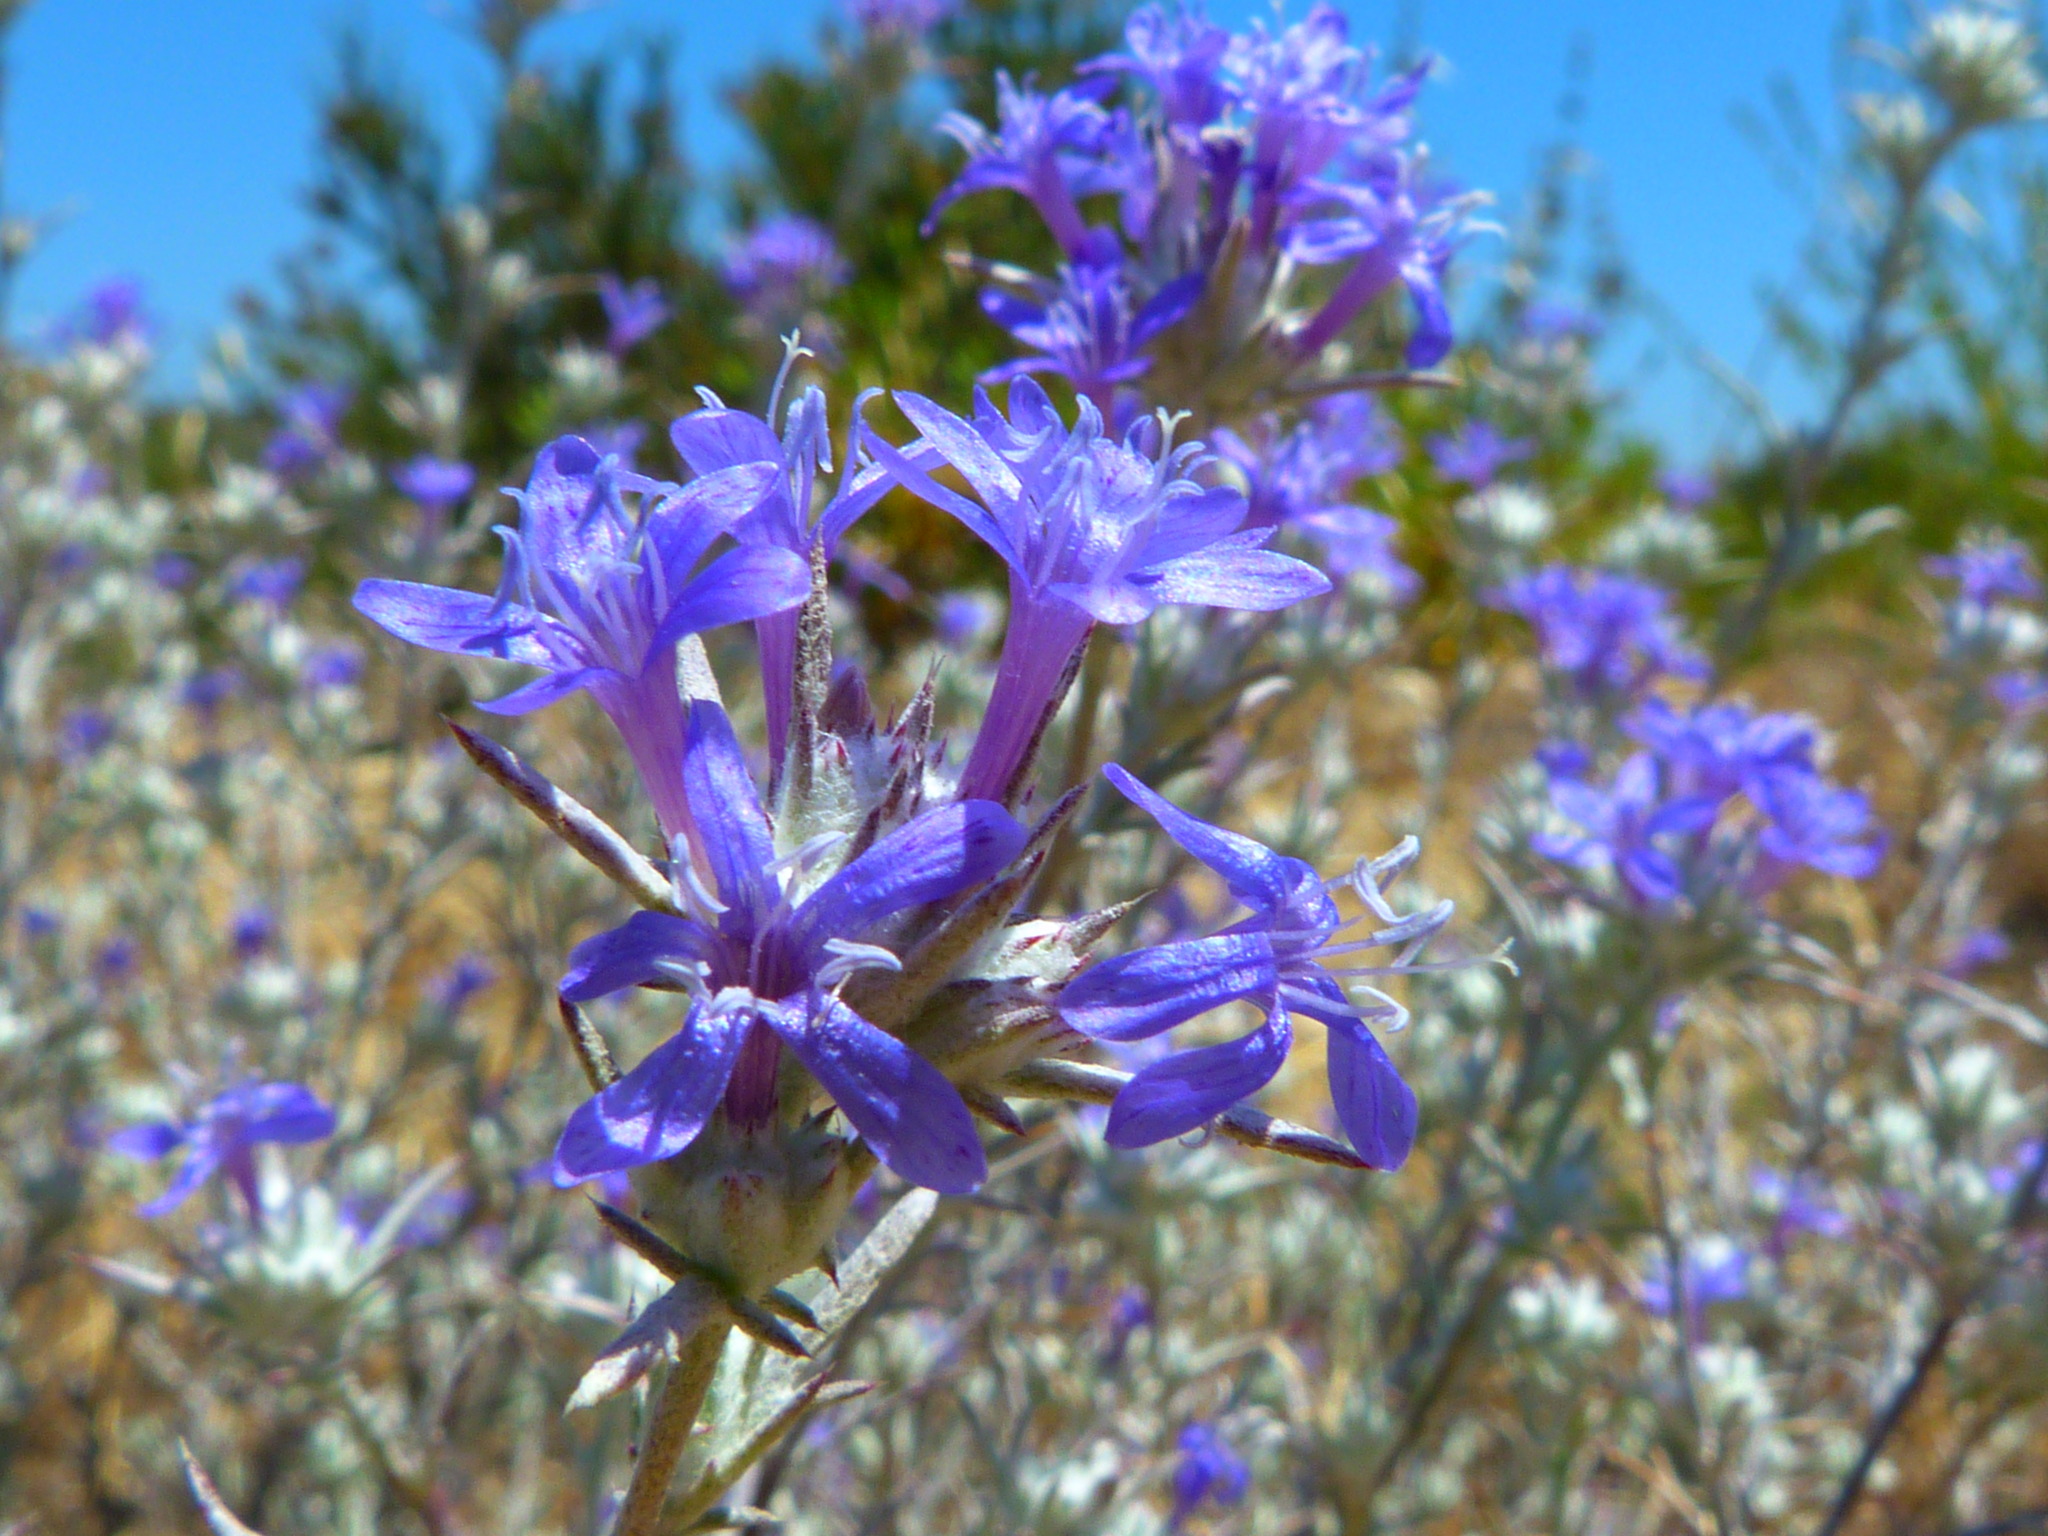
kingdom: Plantae
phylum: Tracheophyta
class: Magnoliopsida
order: Ericales
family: Polemoniaceae
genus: Eriastrum
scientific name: Eriastrum densifolium
